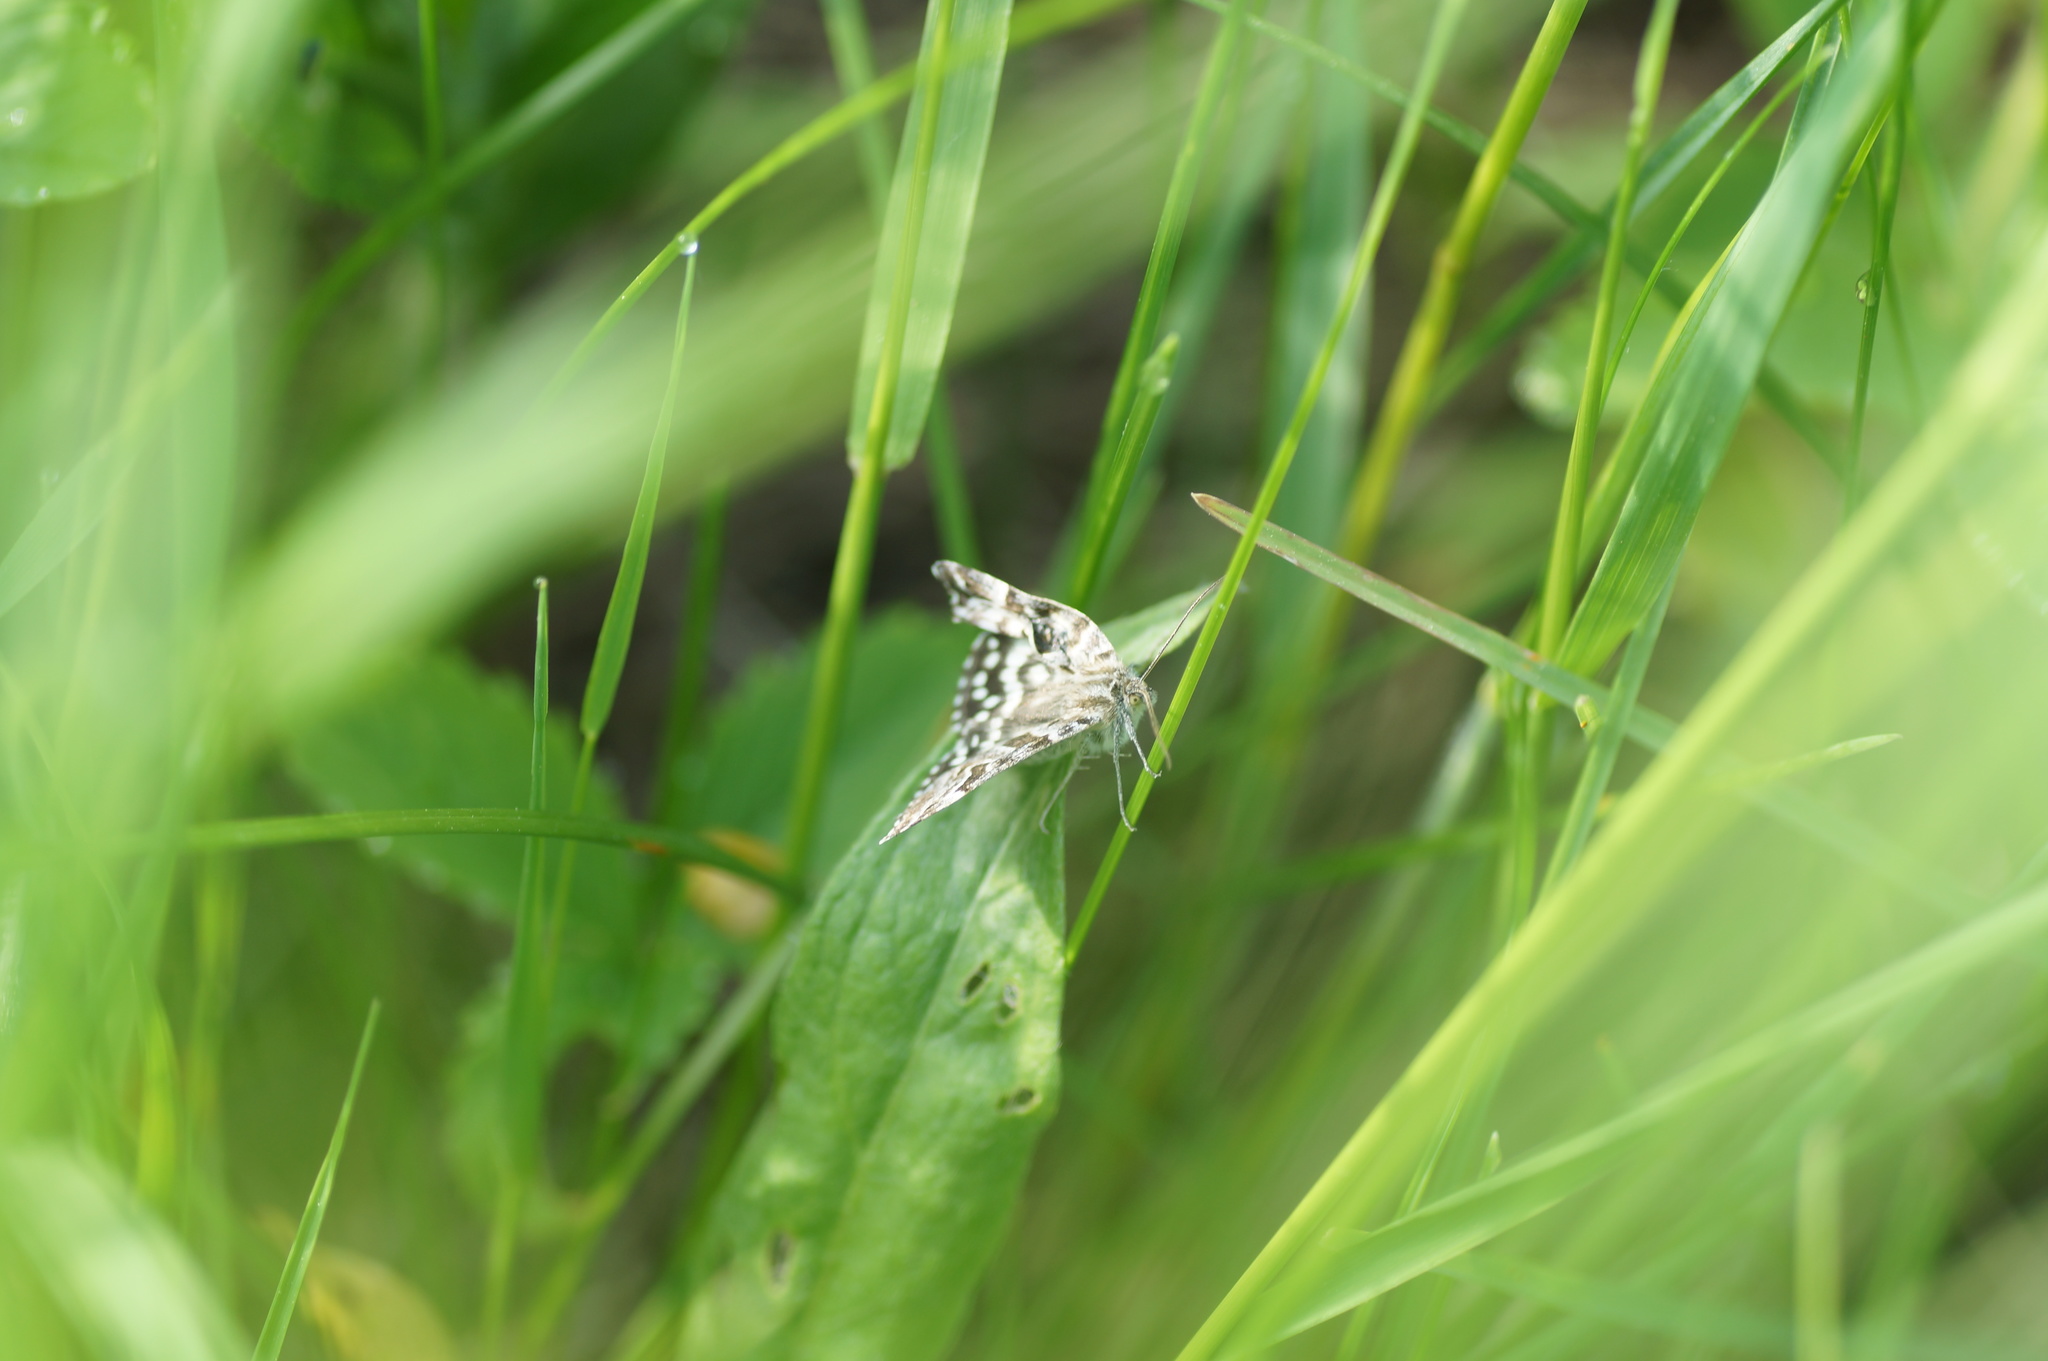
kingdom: Animalia
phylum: Arthropoda
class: Insecta
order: Lepidoptera
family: Erebidae
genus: Callistege
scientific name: Callistege mi
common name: Mother shipton
